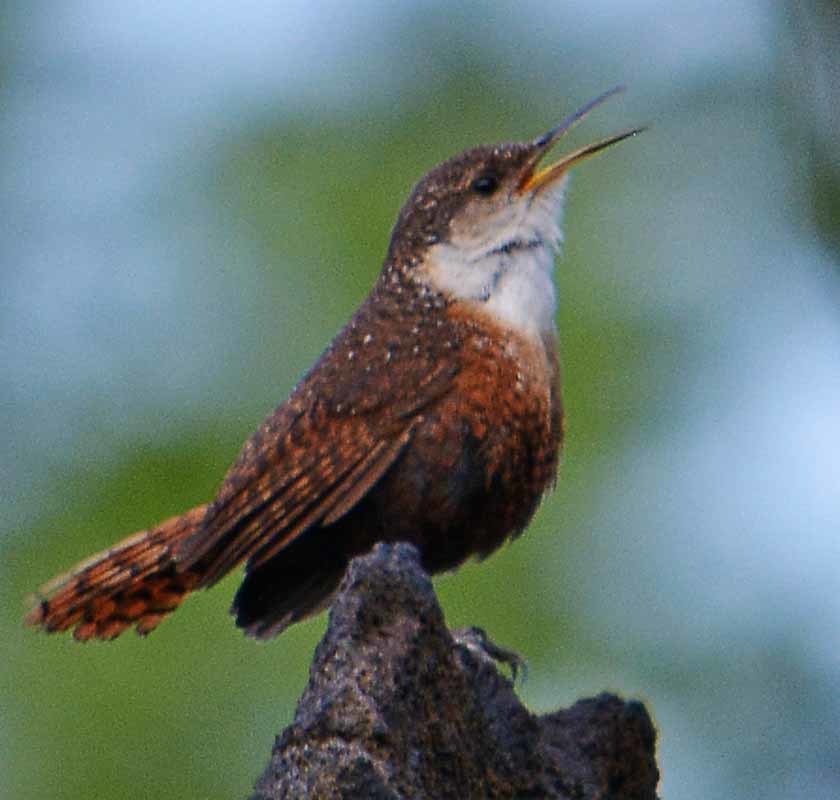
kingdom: Animalia
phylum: Chordata
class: Aves
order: Passeriformes
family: Troglodytidae
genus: Catherpes
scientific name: Catherpes mexicanus
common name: Canyon wren
